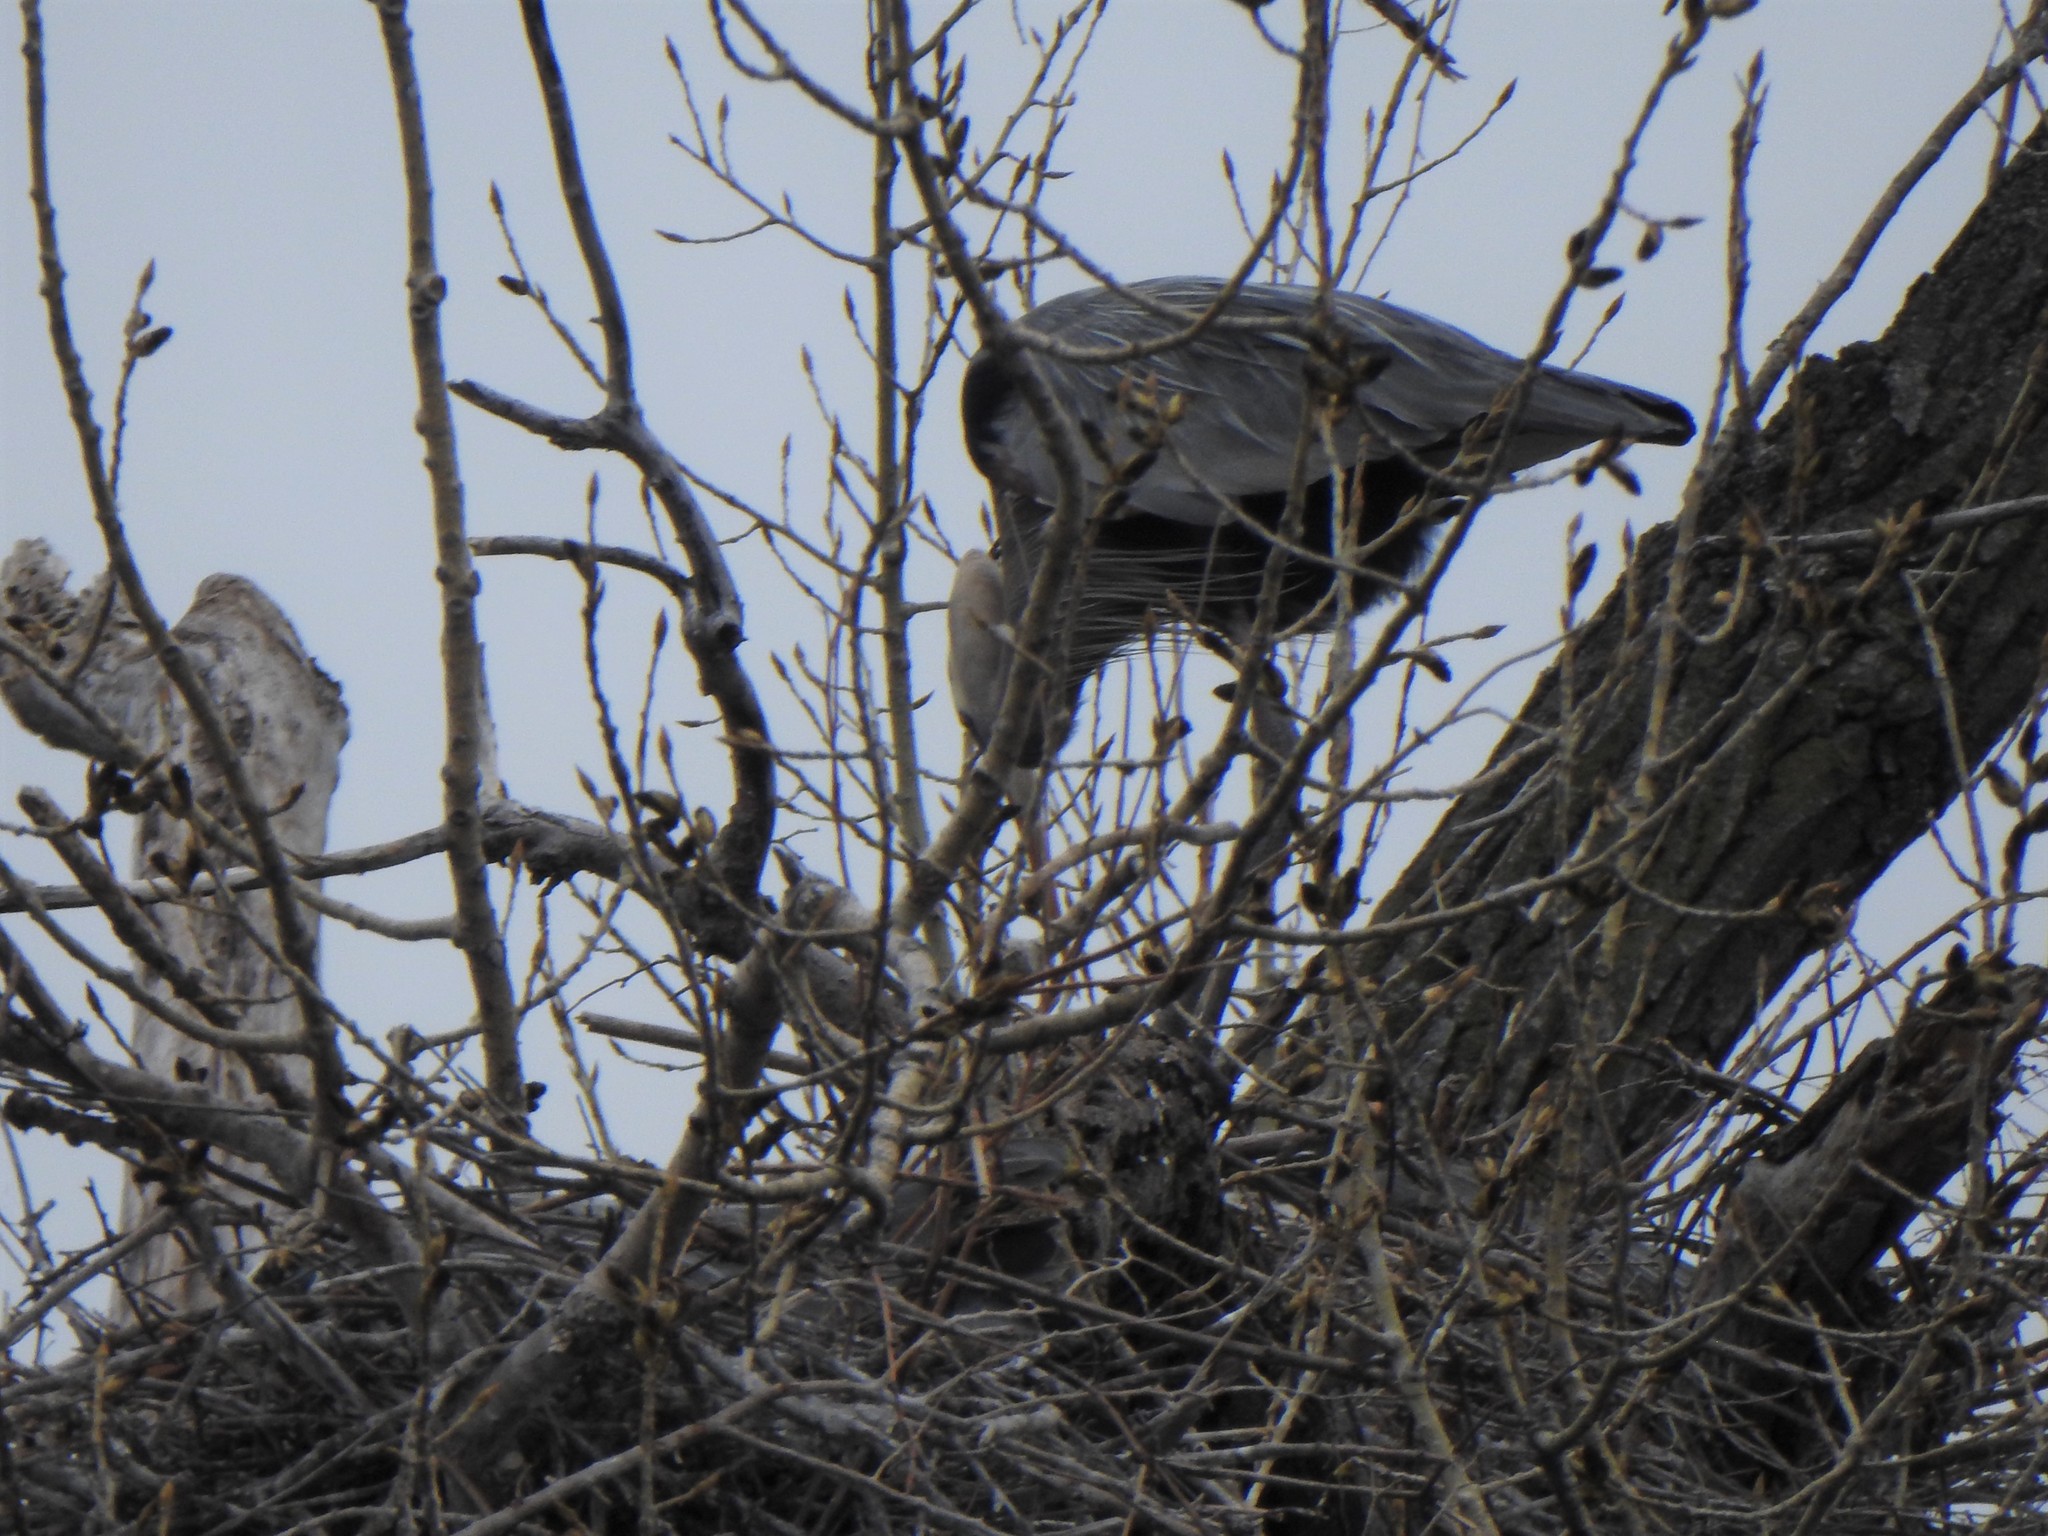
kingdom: Animalia
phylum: Chordata
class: Aves
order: Pelecaniformes
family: Ardeidae
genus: Ardea
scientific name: Ardea herodias
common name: Great blue heron
